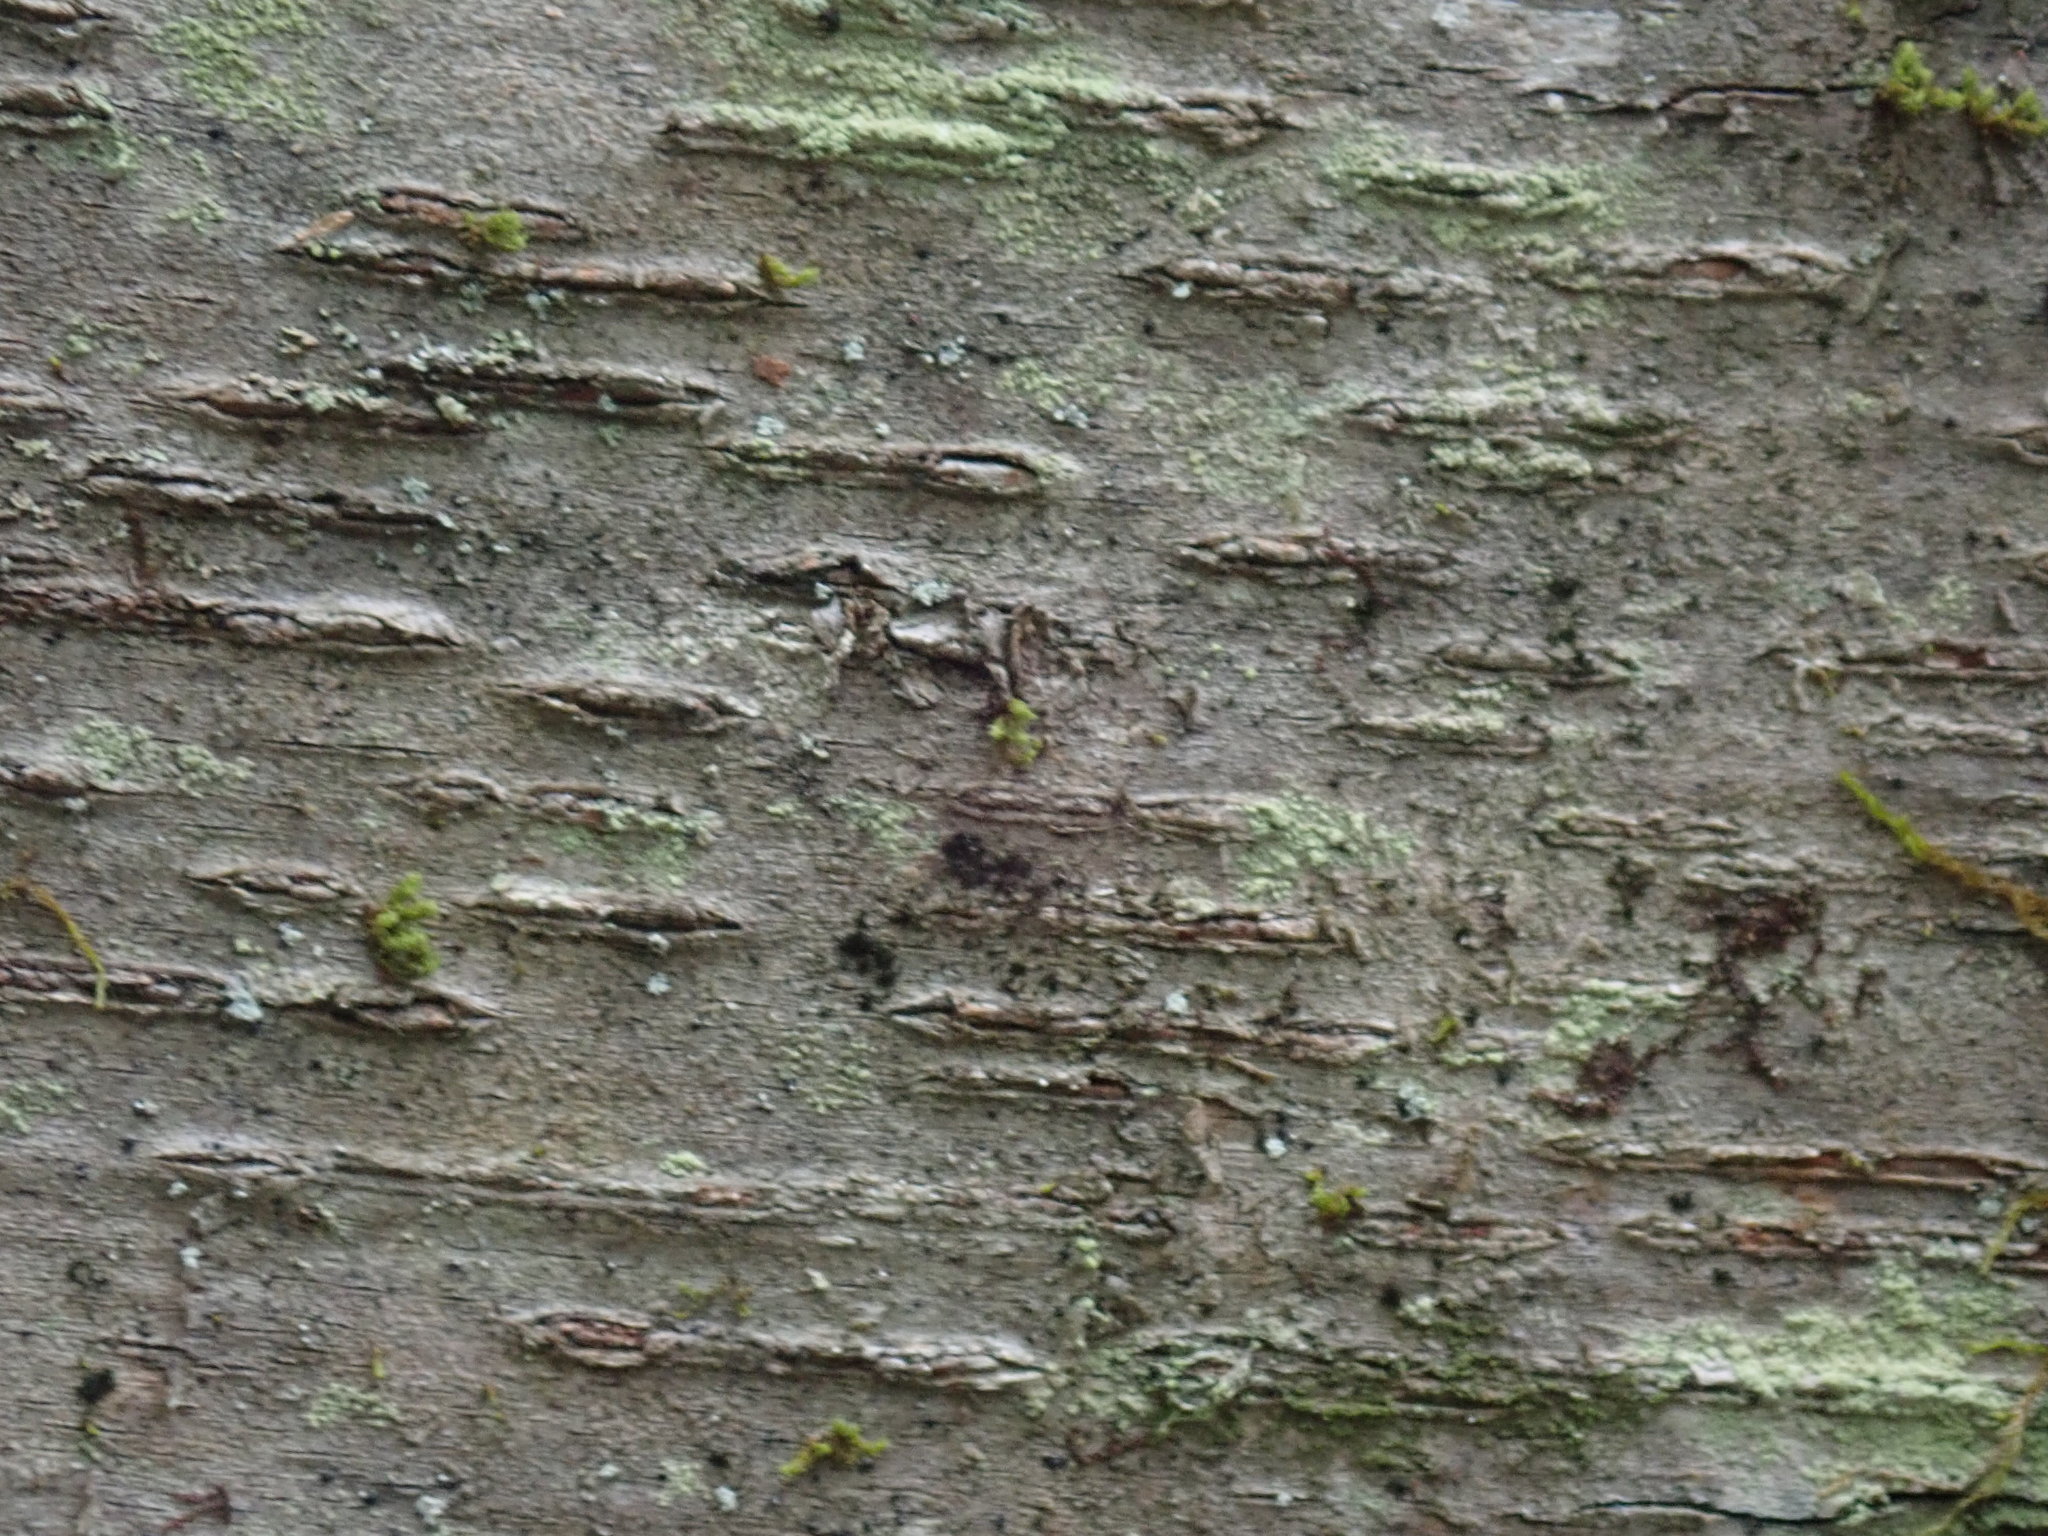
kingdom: Plantae
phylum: Tracheophyta
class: Magnoliopsida
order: Fagales
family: Betulaceae
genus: Betula
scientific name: Betula lenta
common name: Black birch
